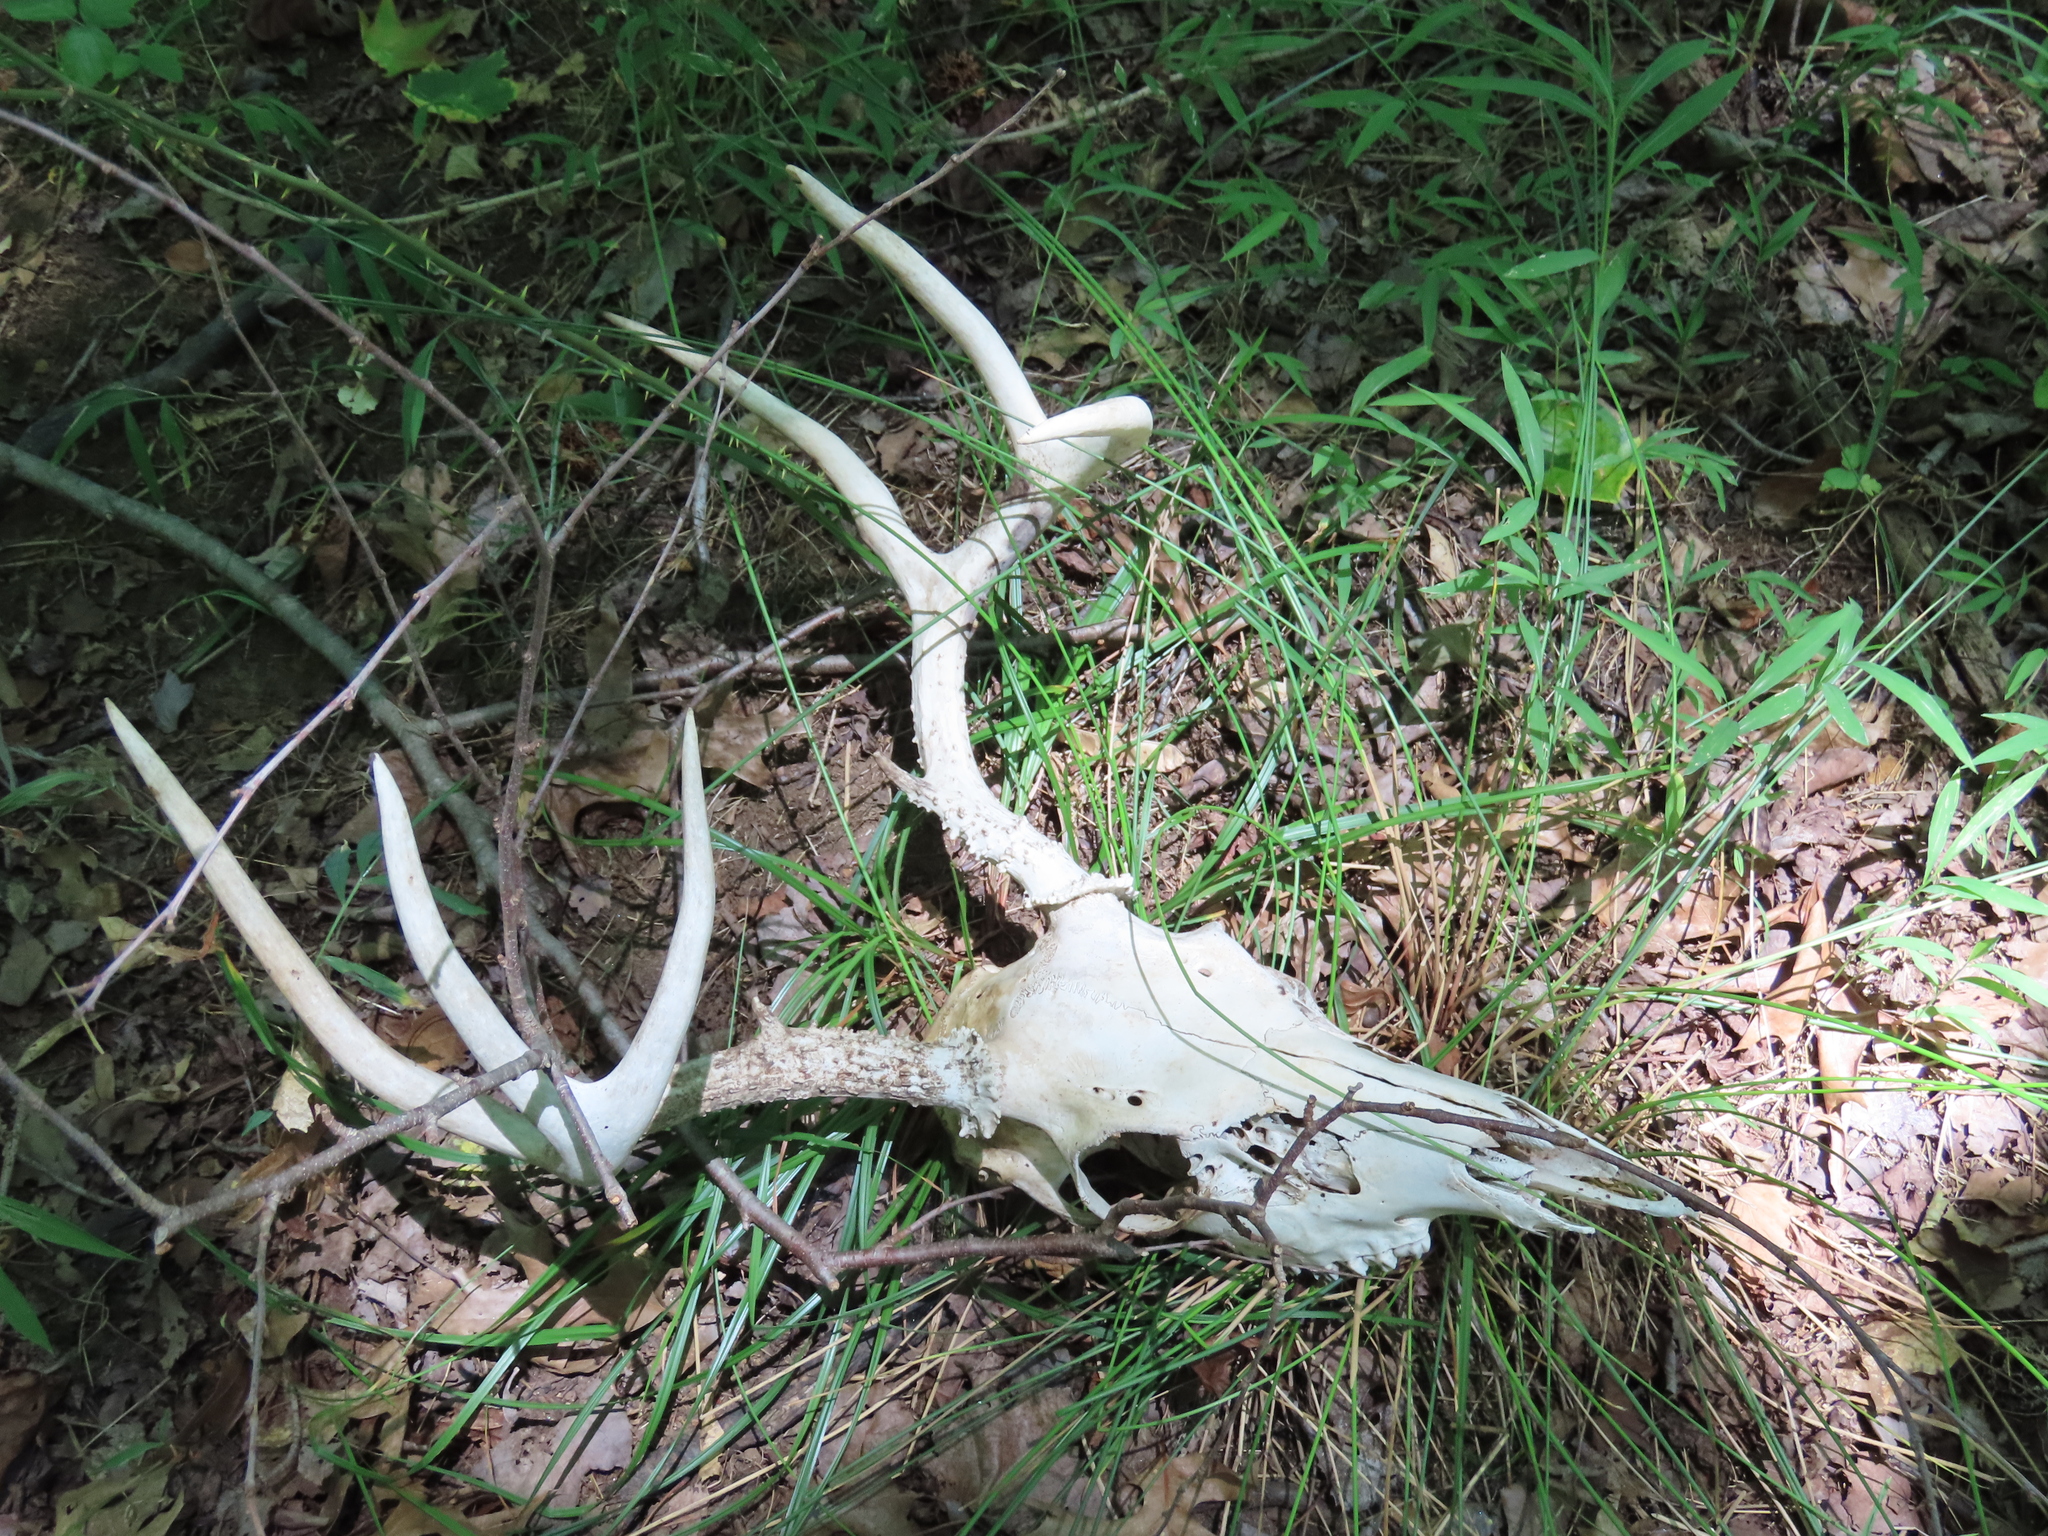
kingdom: Animalia
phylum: Chordata
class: Mammalia
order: Artiodactyla
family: Cervidae
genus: Odocoileus
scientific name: Odocoileus virginianus
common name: White-tailed deer
